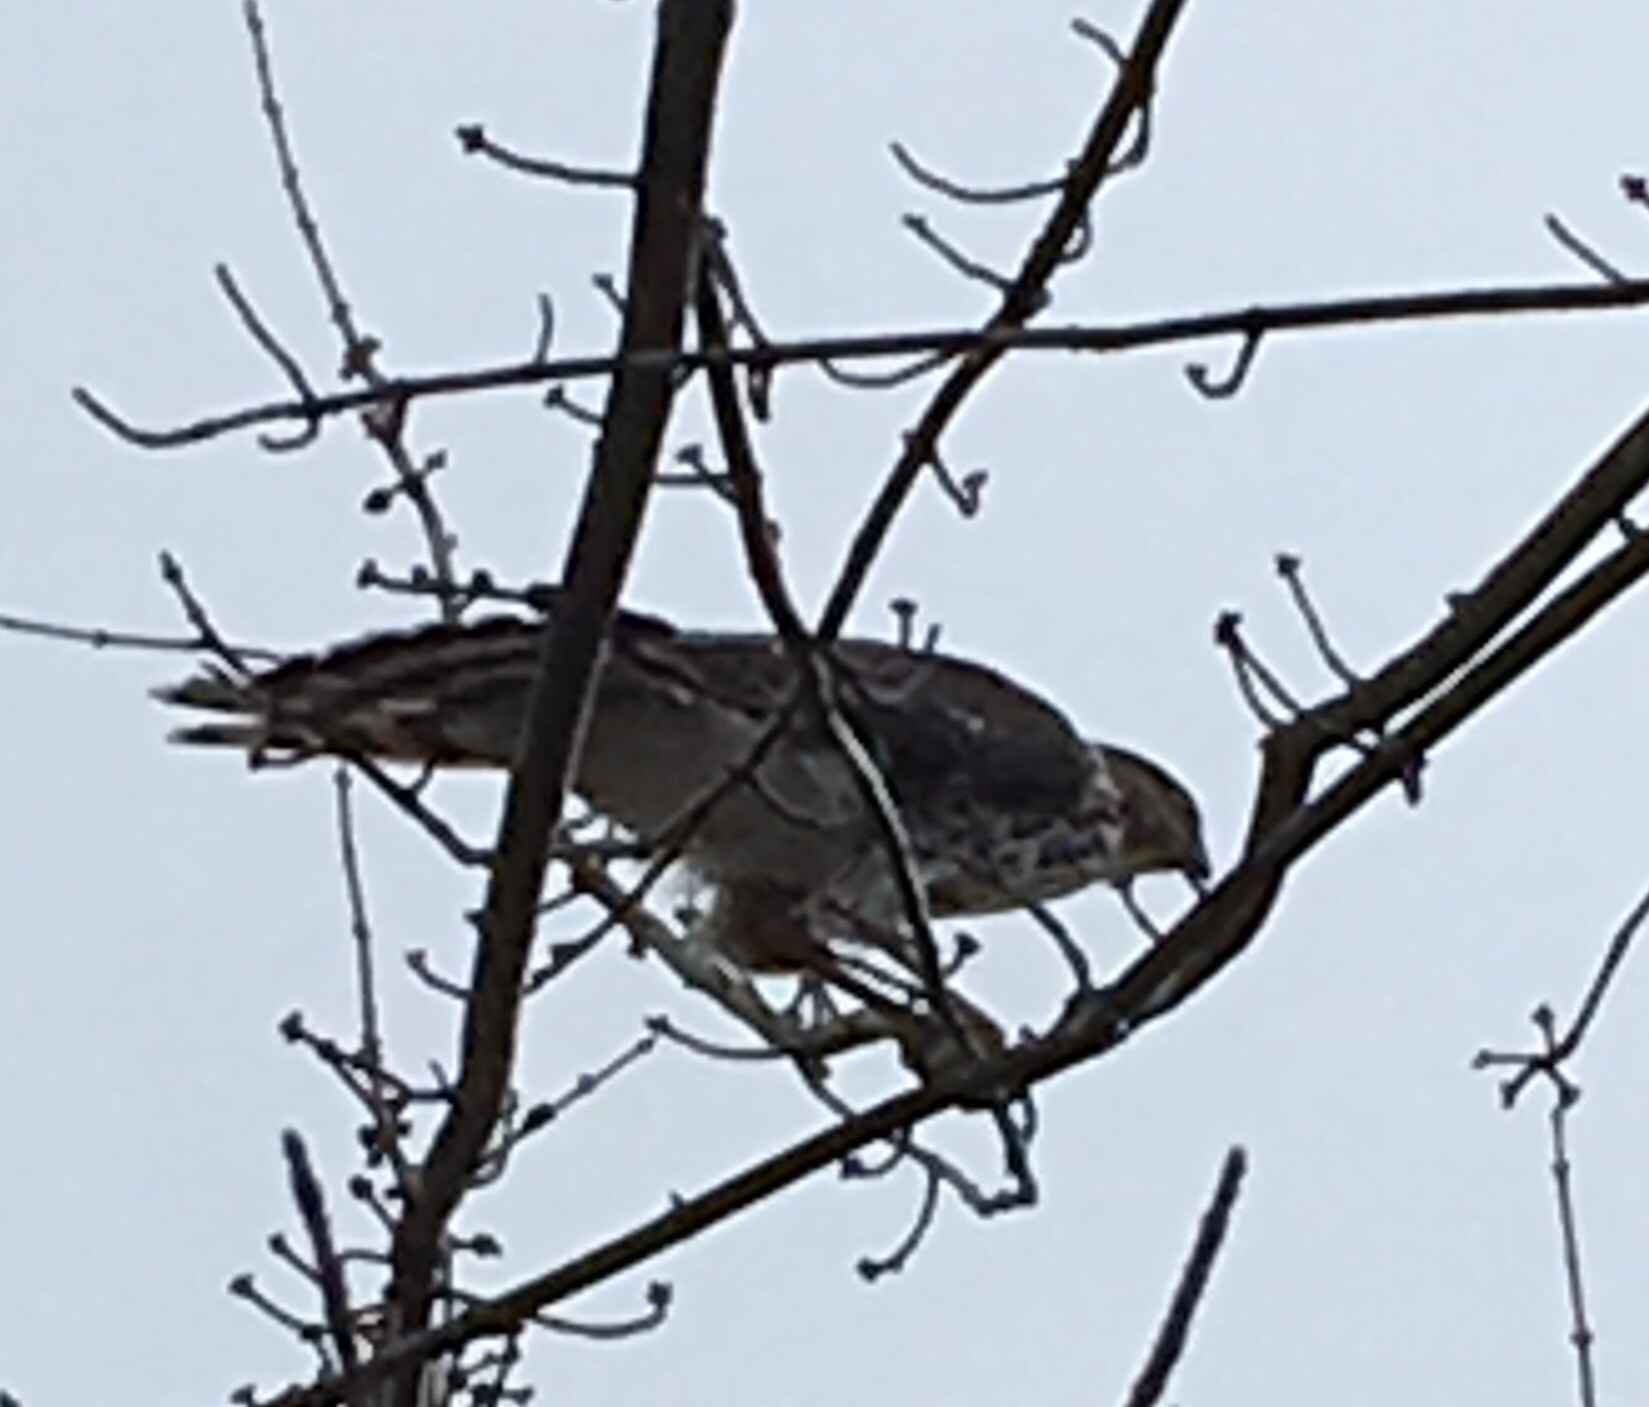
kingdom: Animalia
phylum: Chordata
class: Aves
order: Accipitriformes
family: Accipitridae
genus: Accipiter
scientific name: Accipiter cooperii
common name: Cooper's hawk
